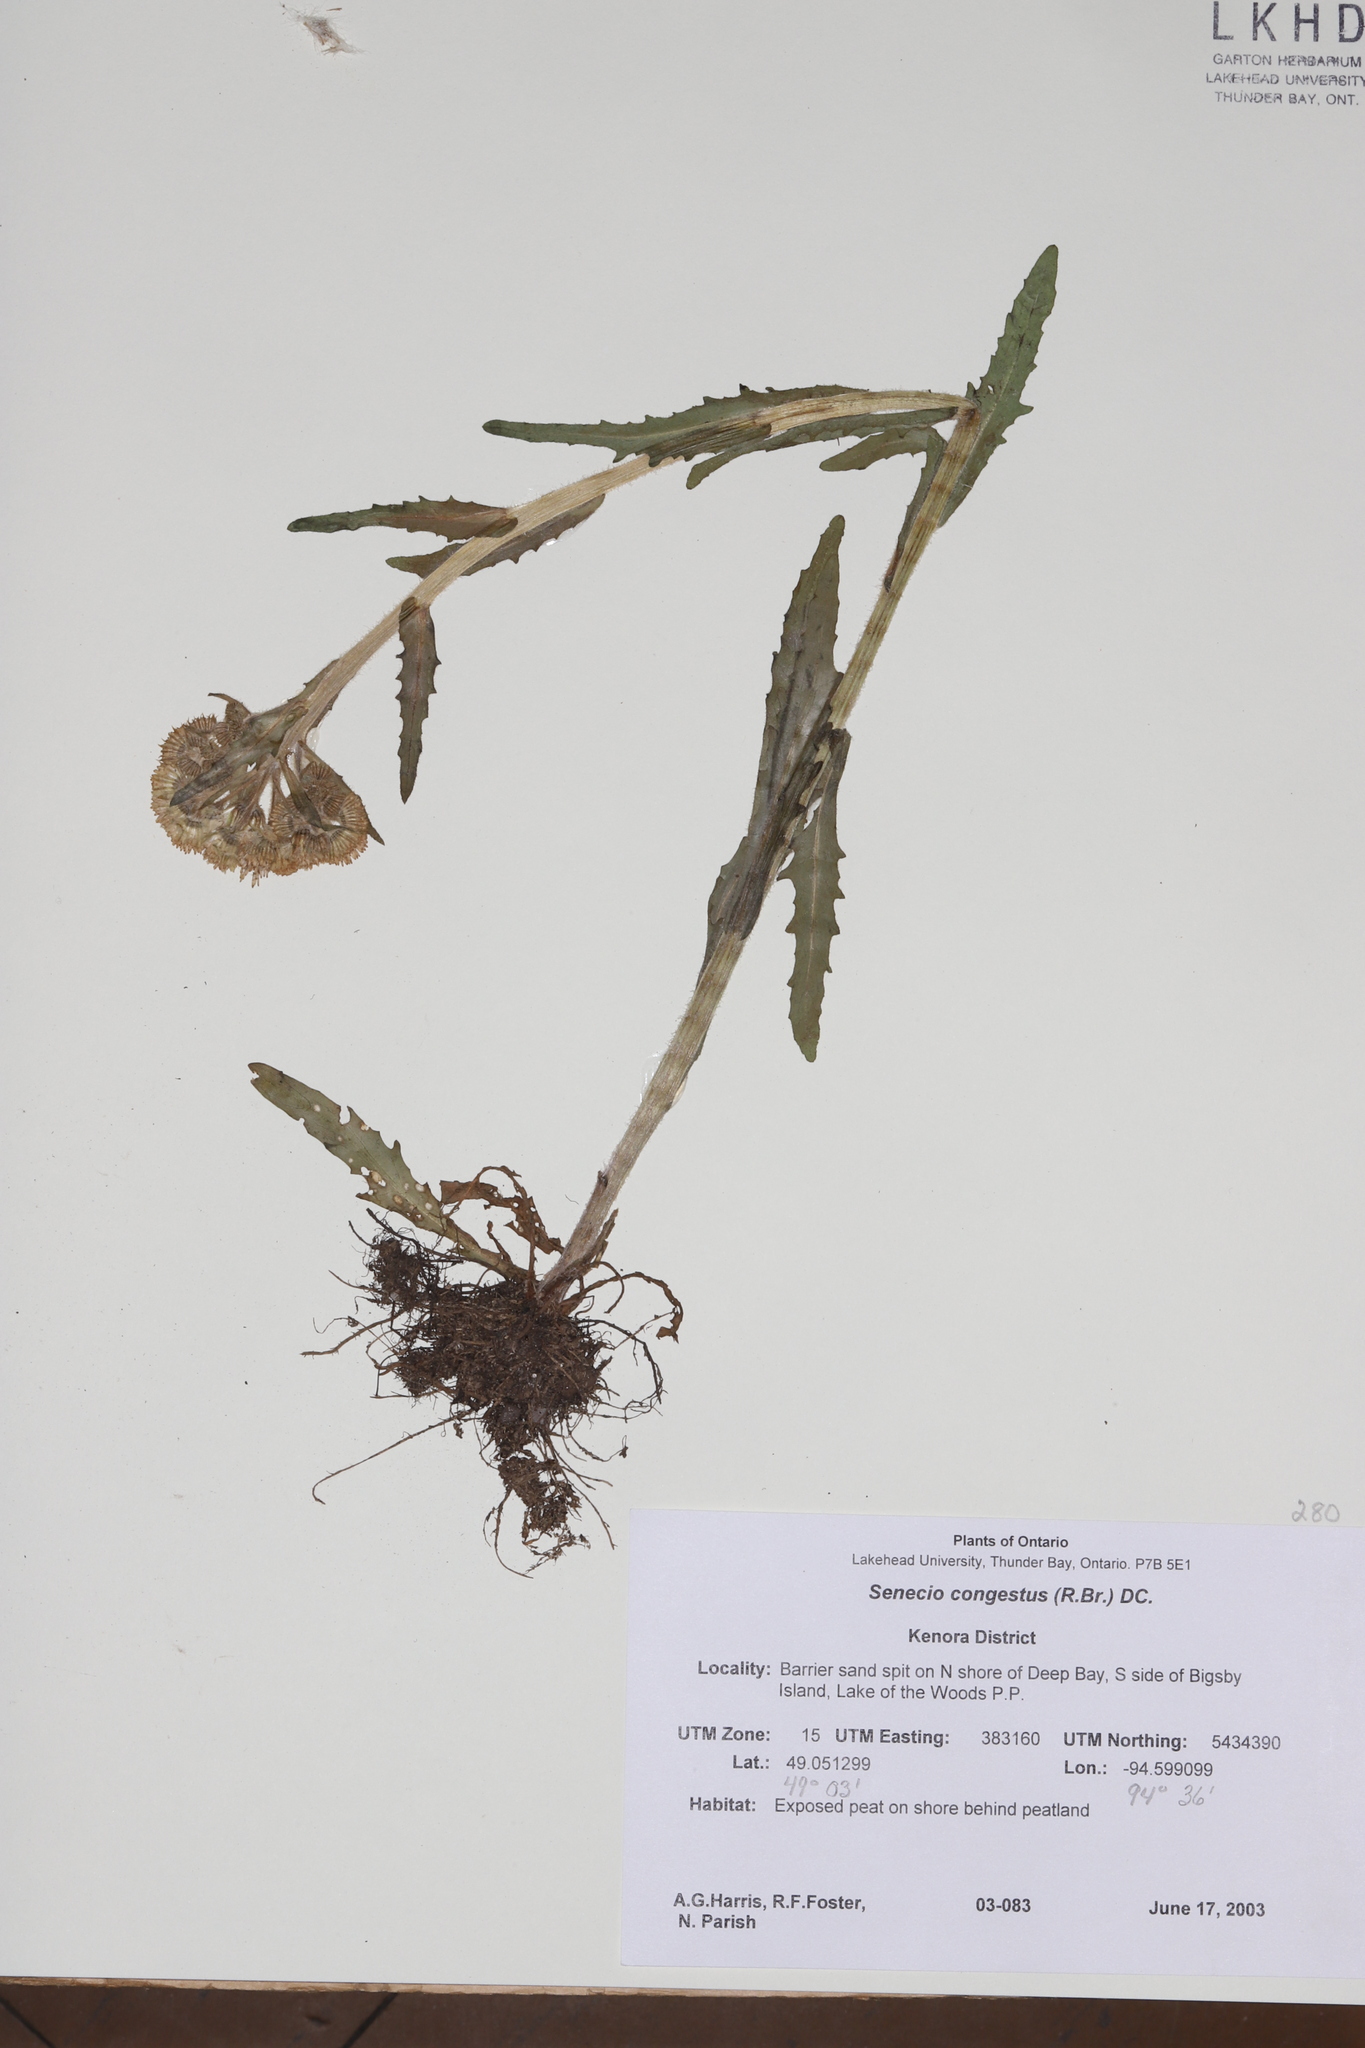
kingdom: Plantae
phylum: Tracheophyta
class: Magnoliopsida
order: Asterales
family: Asteraceae
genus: Tephroseris
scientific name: Tephroseris palustris
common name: Marsh fleawort
